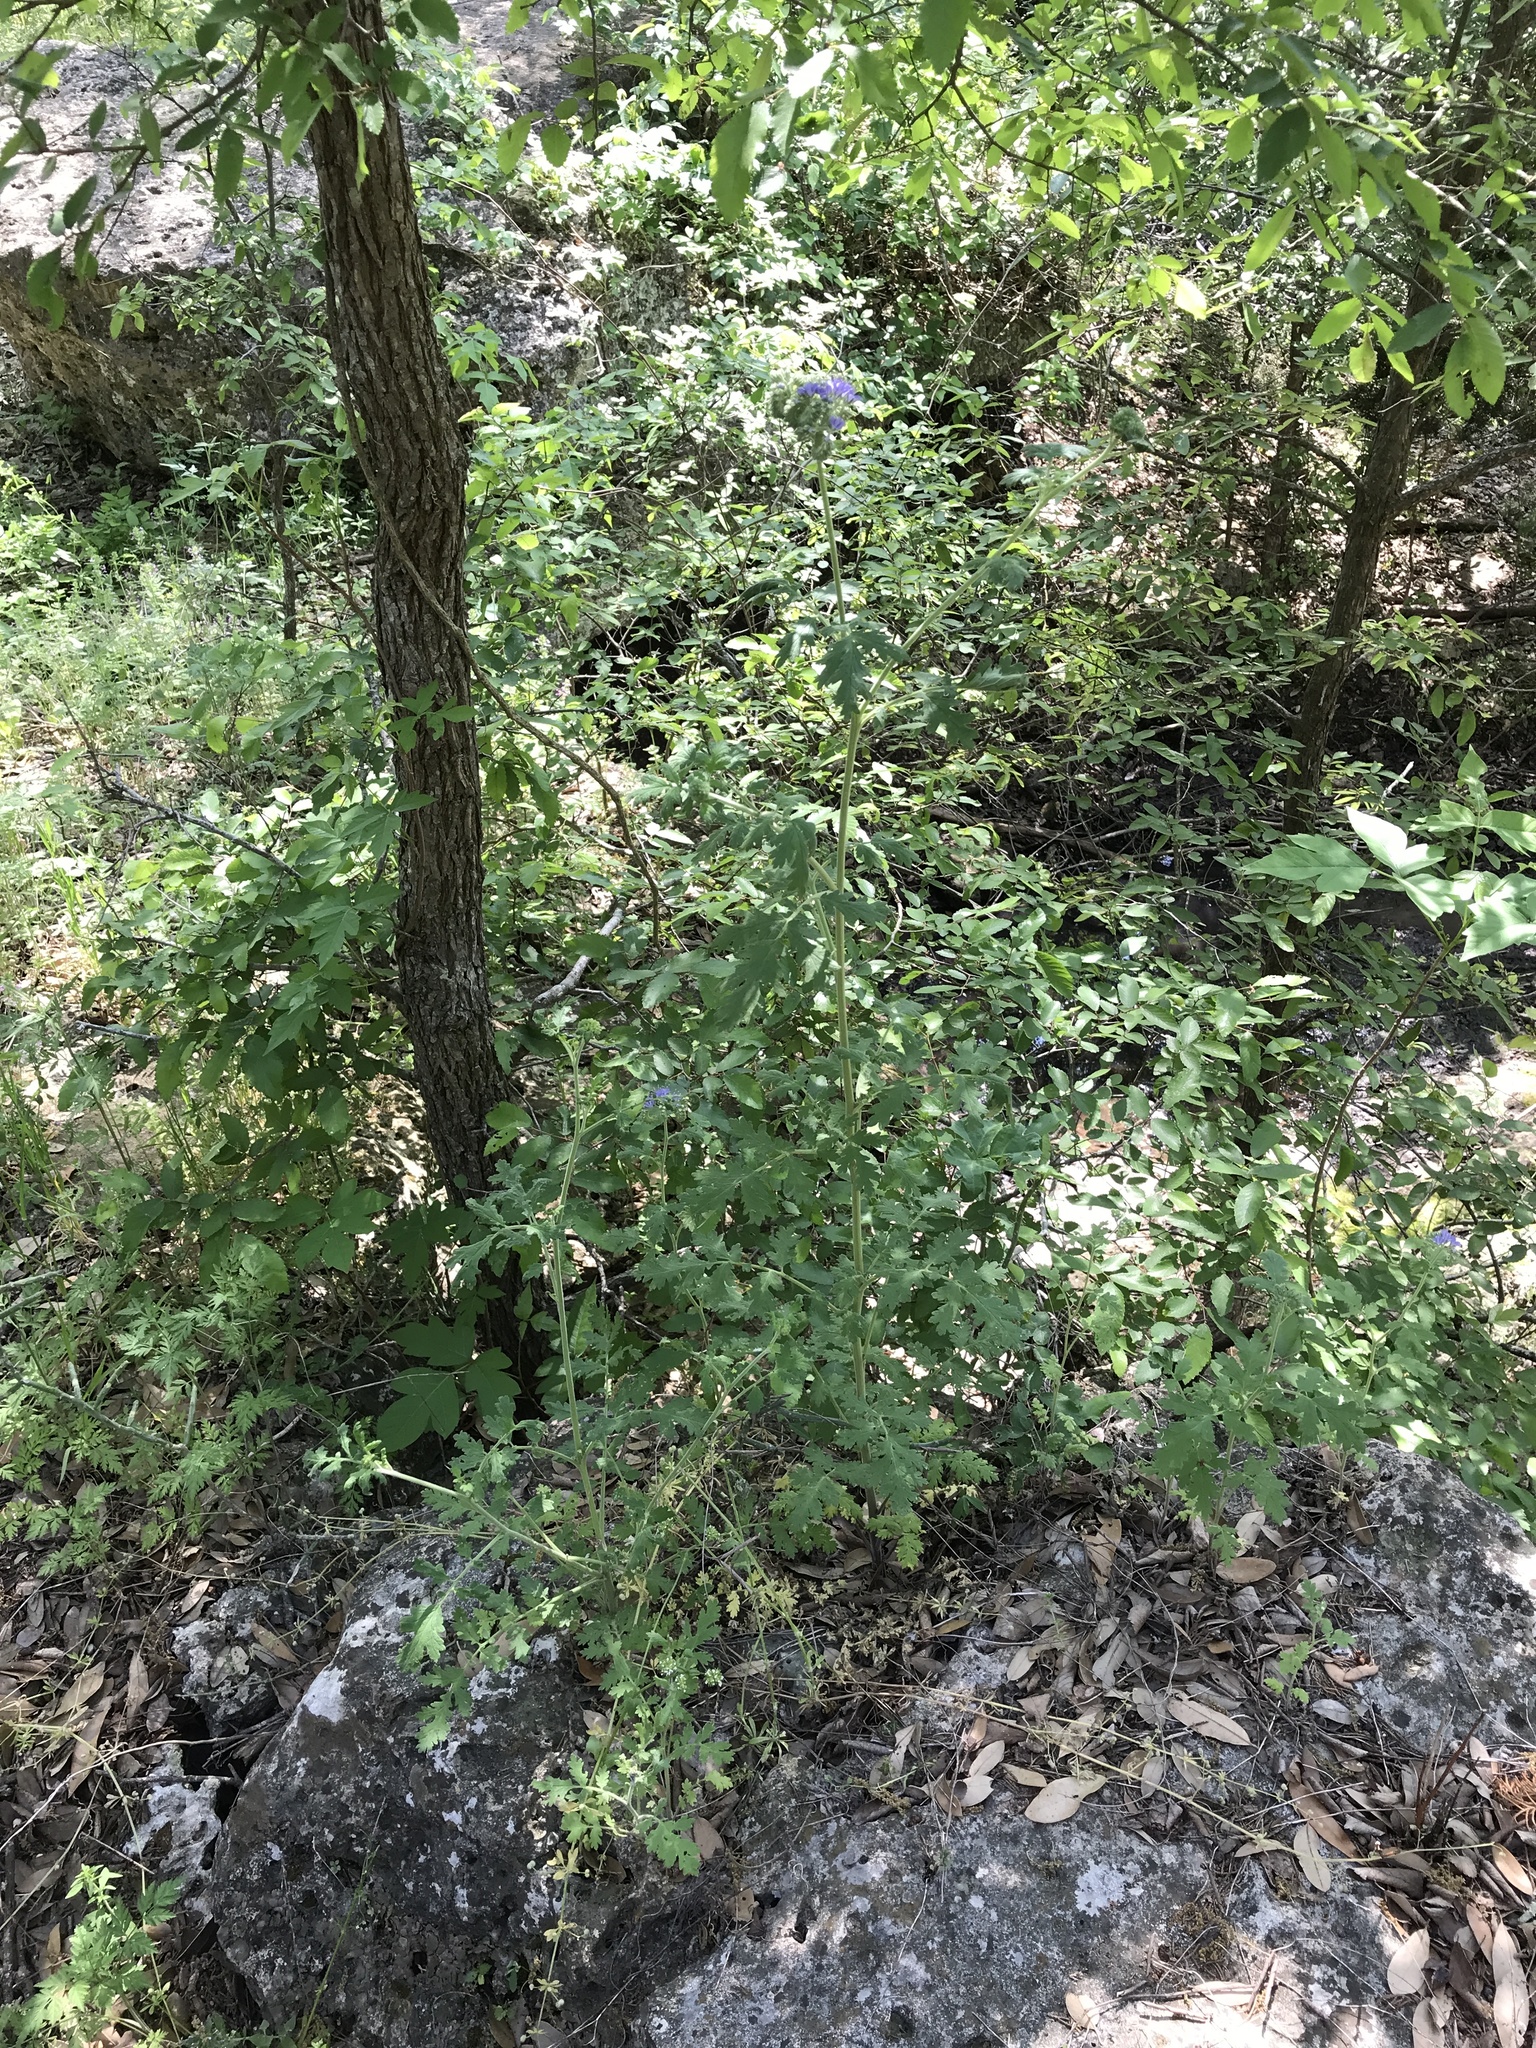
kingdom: Plantae
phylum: Tracheophyta
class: Magnoliopsida
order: Boraginales
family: Hydrophyllaceae
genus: Phacelia
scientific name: Phacelia congesta
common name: Blue curls
